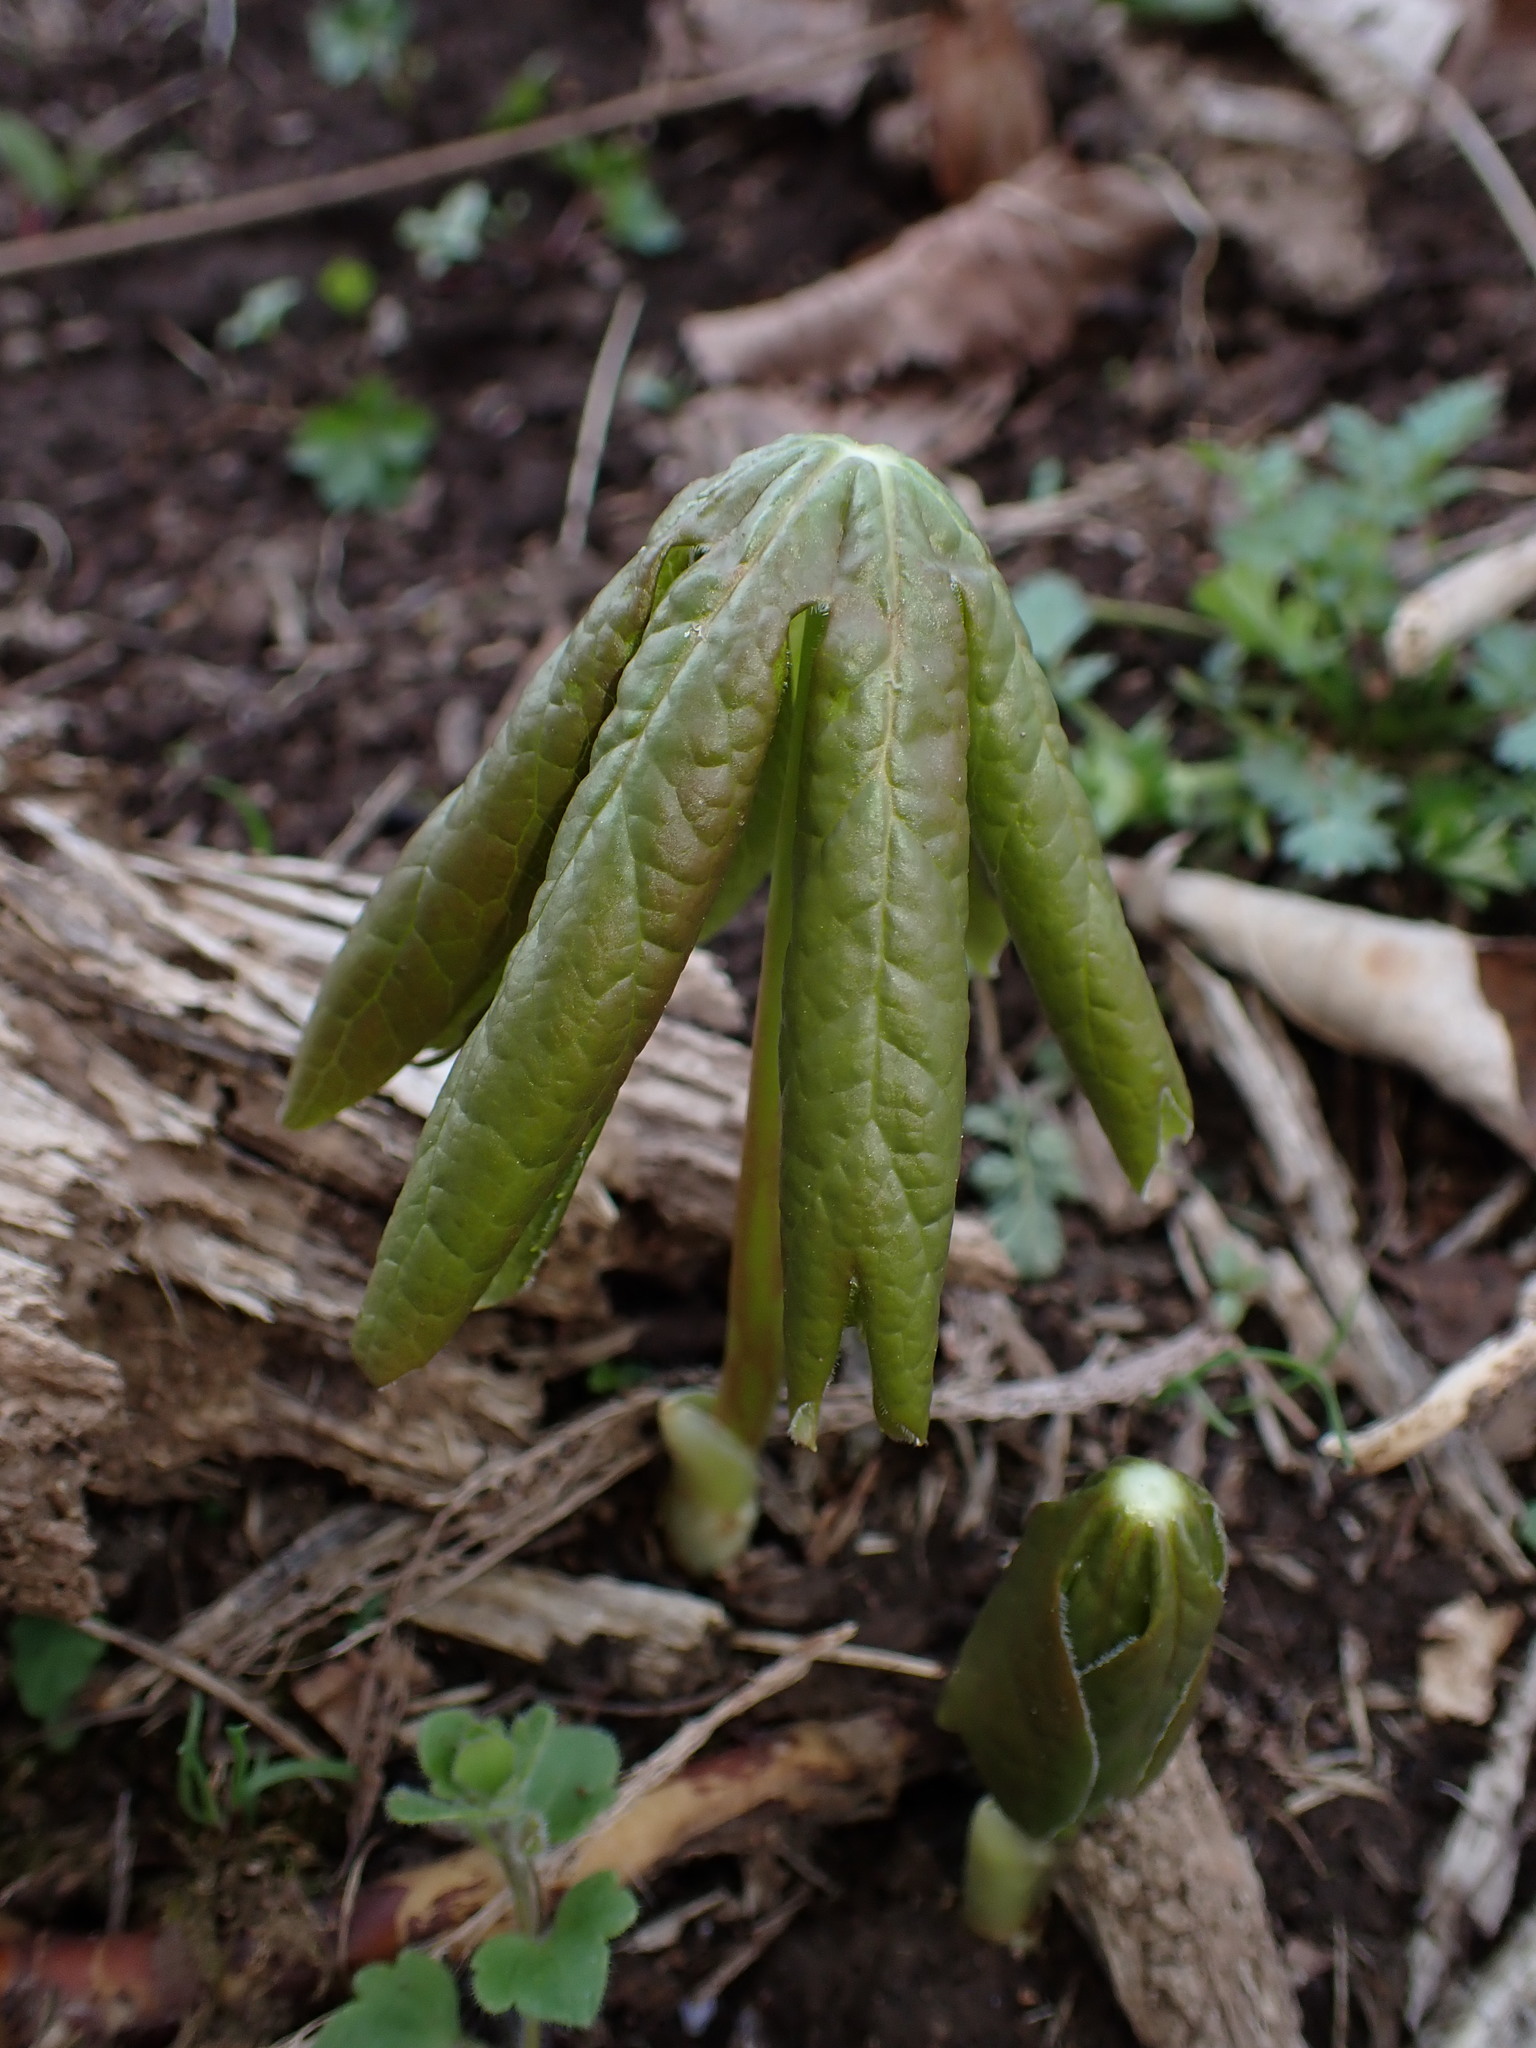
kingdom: Plantae
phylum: Tracheophyta
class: Magnoliopsida
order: Ranunculales
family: Berberidaceae
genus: Podophyllum
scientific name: Podophyllum peltatum
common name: Wild mandrake
